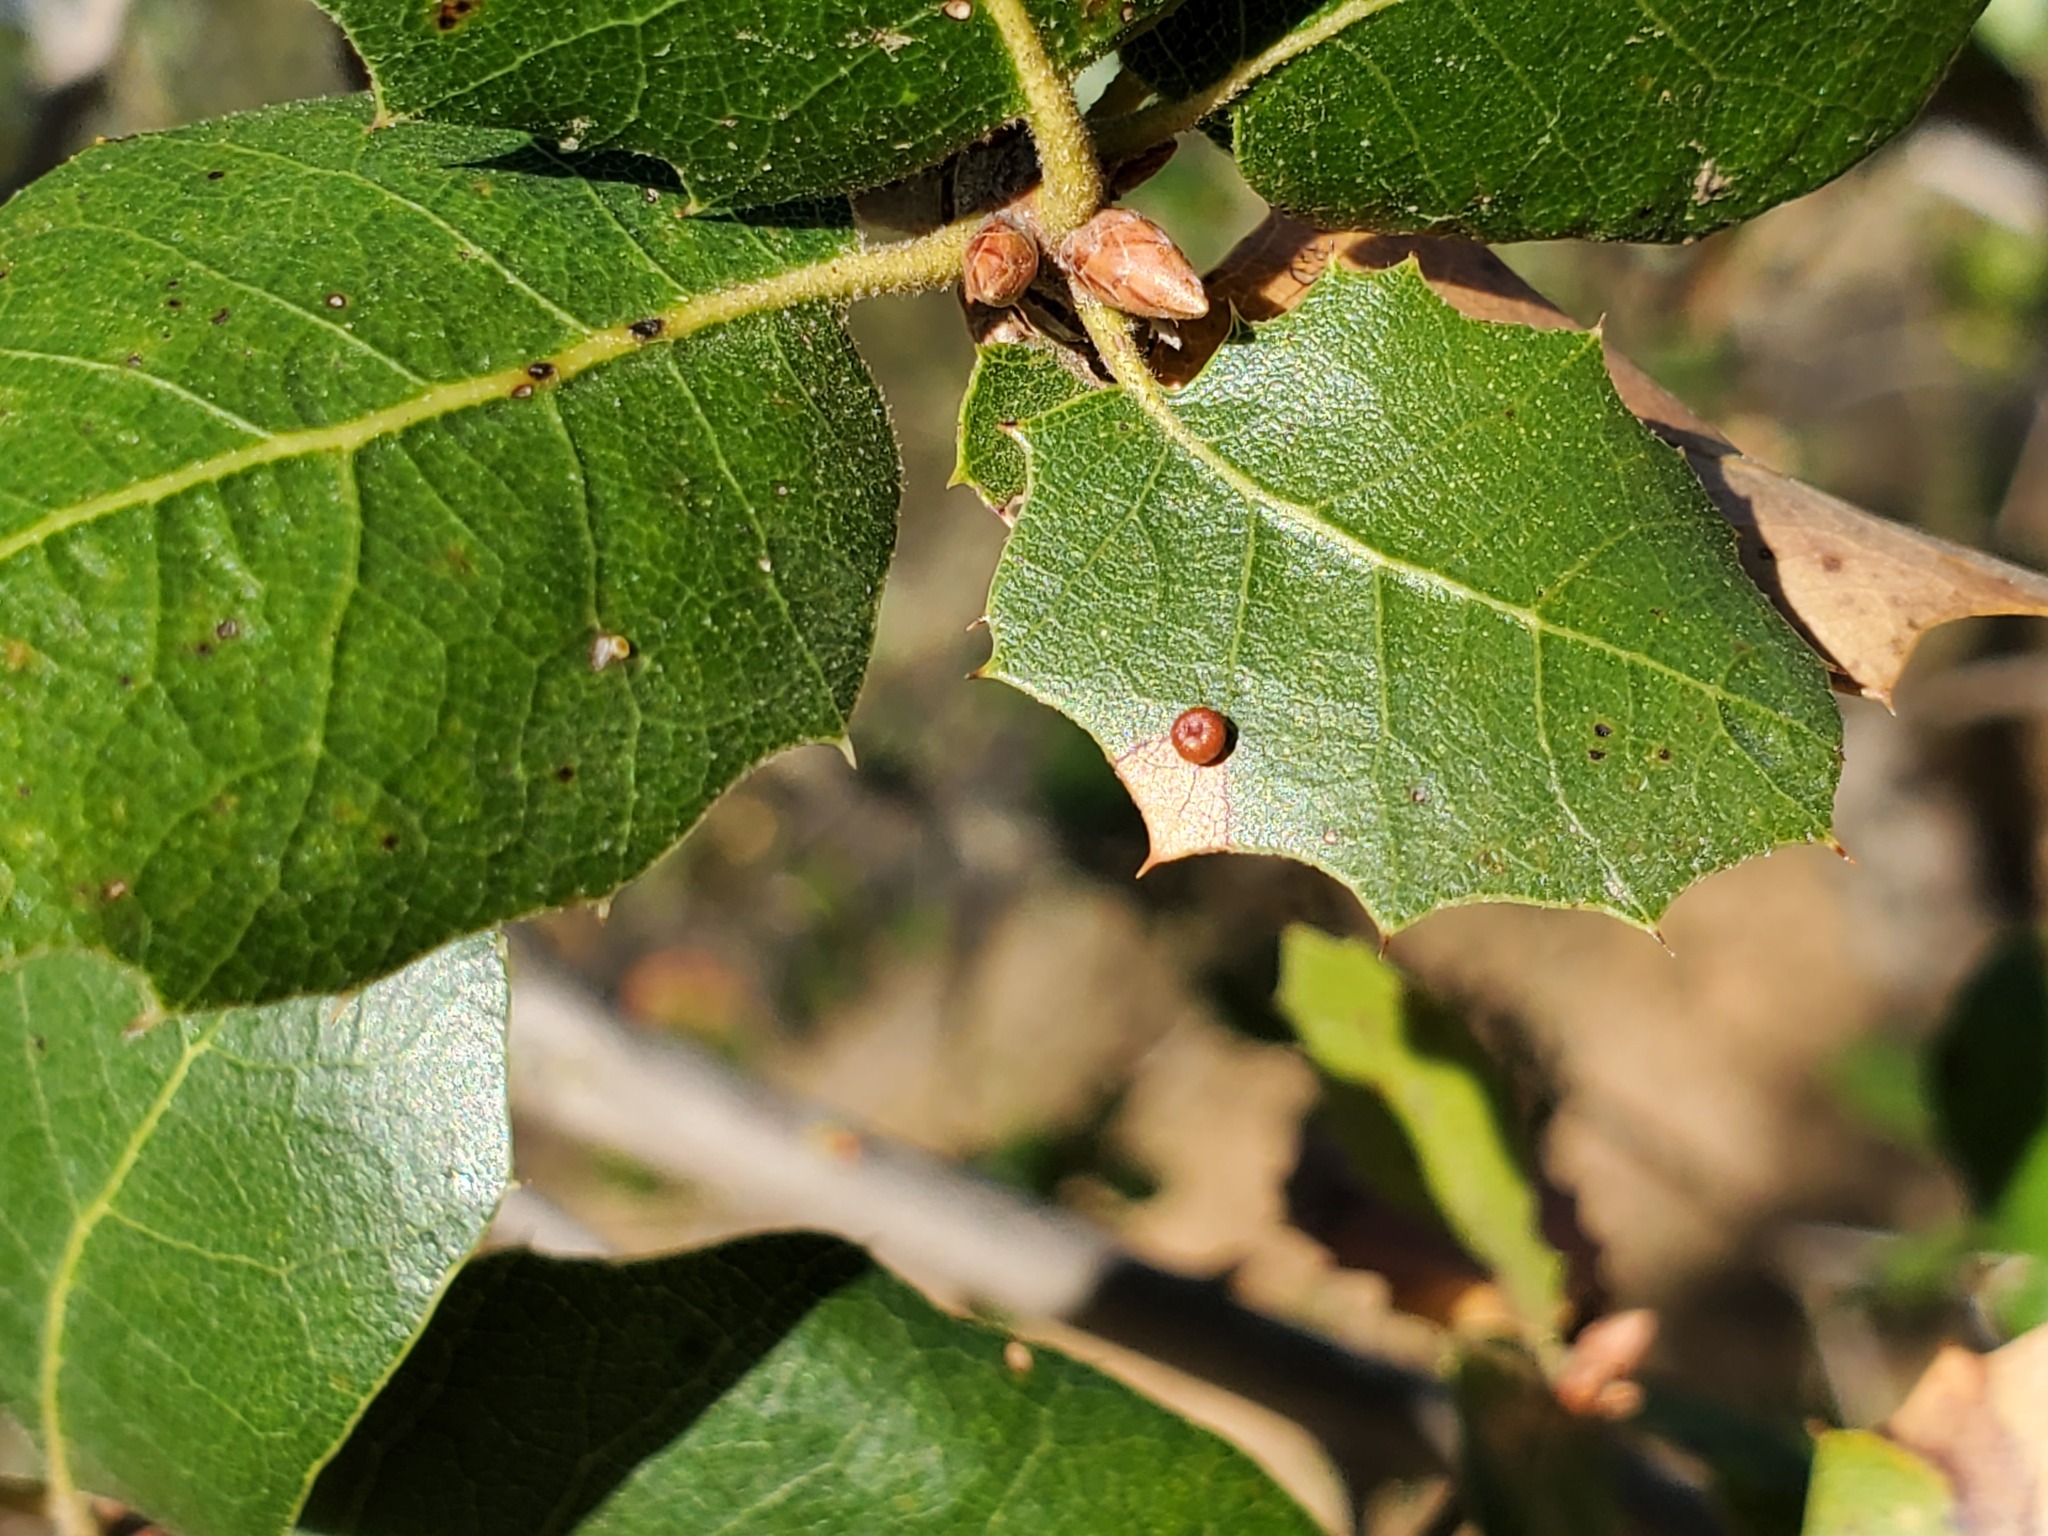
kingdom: Animalia
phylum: Arthropoda
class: Insecta
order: Hymenoptera
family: Cynipidae
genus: Dryocosmus
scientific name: Dryocosmus
